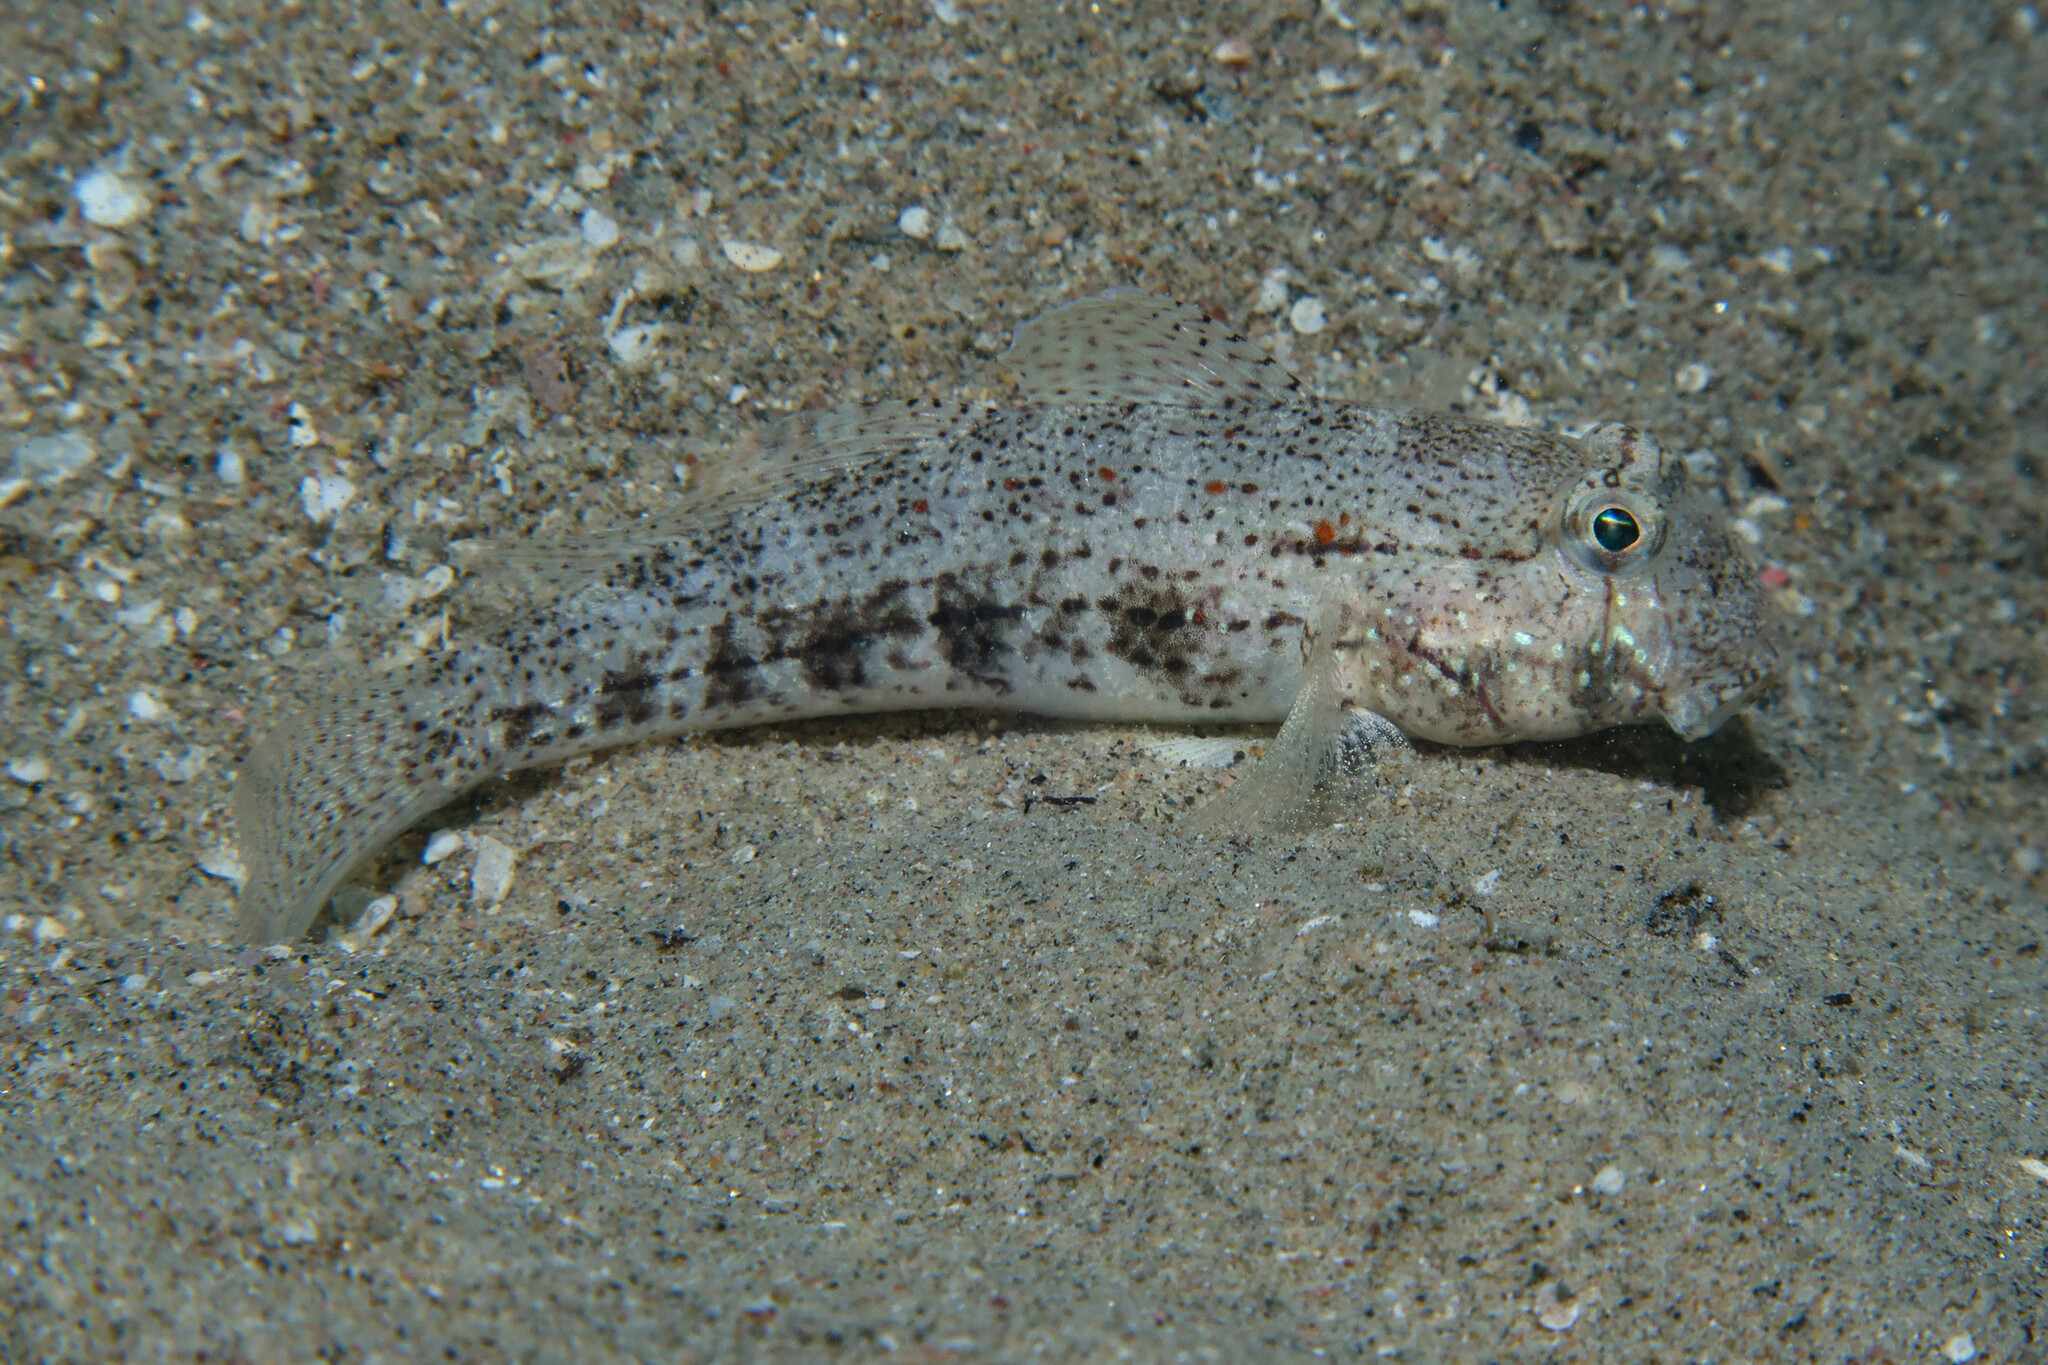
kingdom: Animalia
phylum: Chordata
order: Perciformes
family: Gobiidae
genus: Gnatholepis
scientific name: Gnatholepis anjerensis
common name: Anjer eye-bar goby
